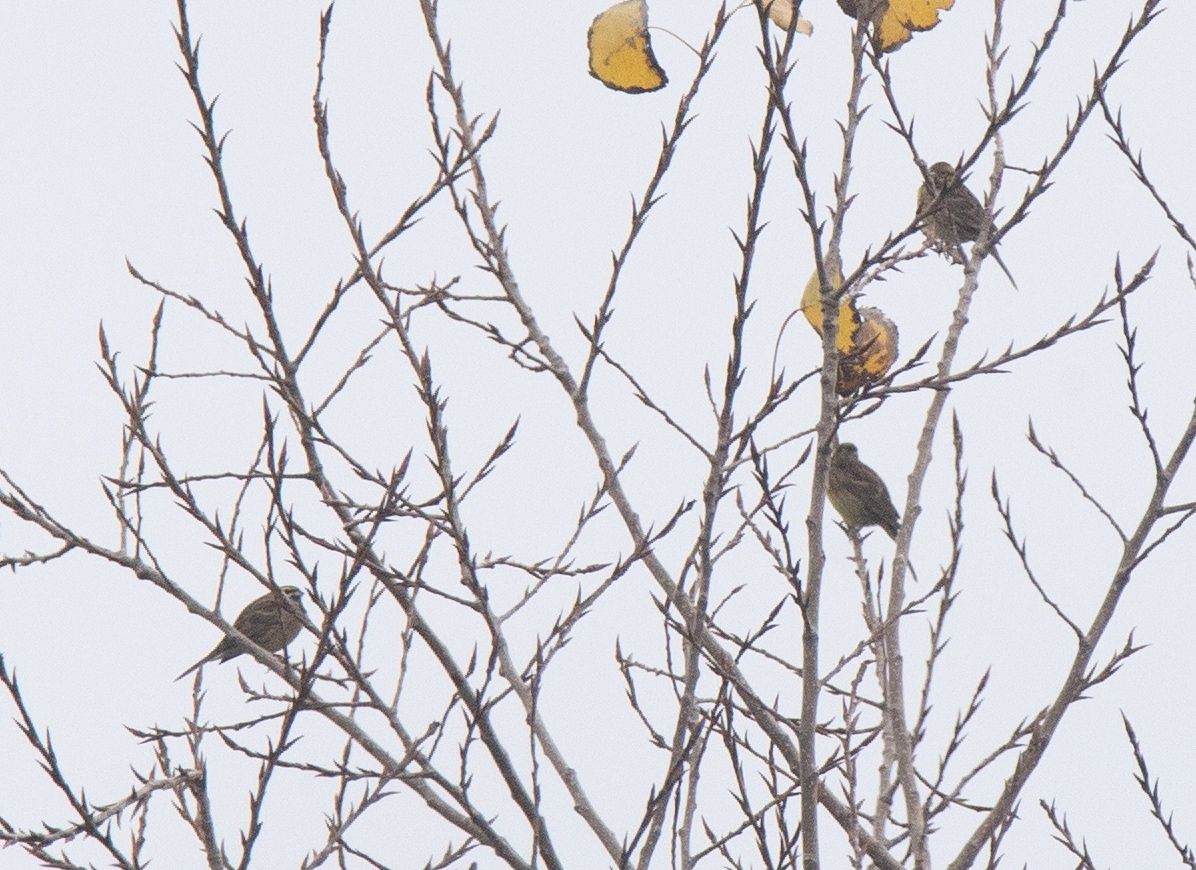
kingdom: Animalia
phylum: Chordata
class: Aves
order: Passeriformes
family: Emberizidae
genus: Emberiza
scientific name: Emberiza cirlus
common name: Cirl bunting
